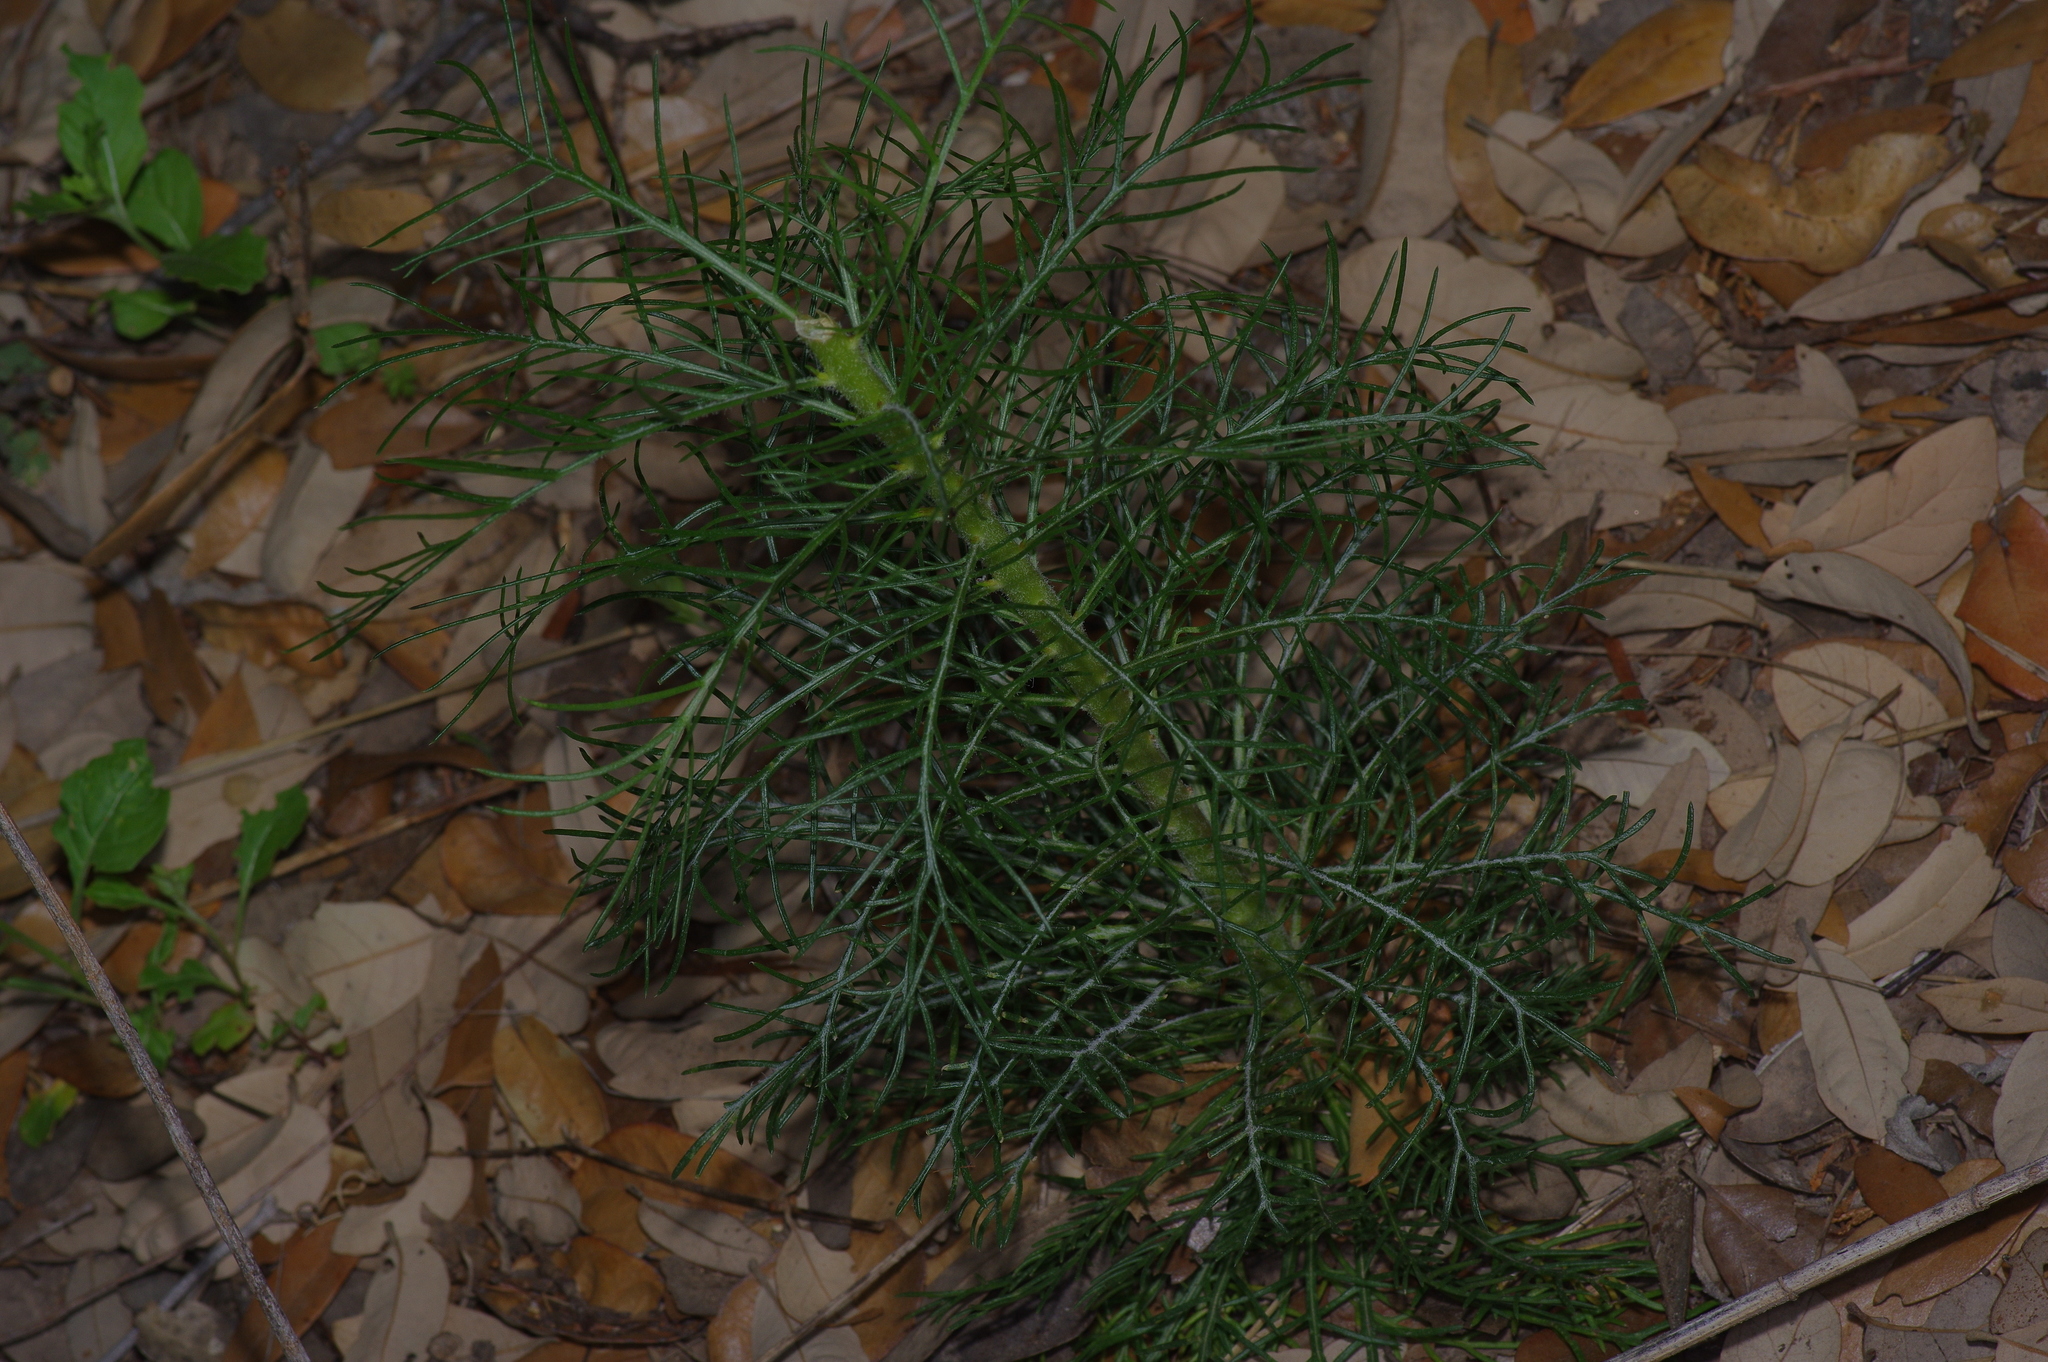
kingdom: Plantae
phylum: Tracheophyta
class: Magnoliopsida
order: Ericales
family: Polemoniaceae
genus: Ipomopsis
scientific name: Ipomopsis rubra
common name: Skyrocket
